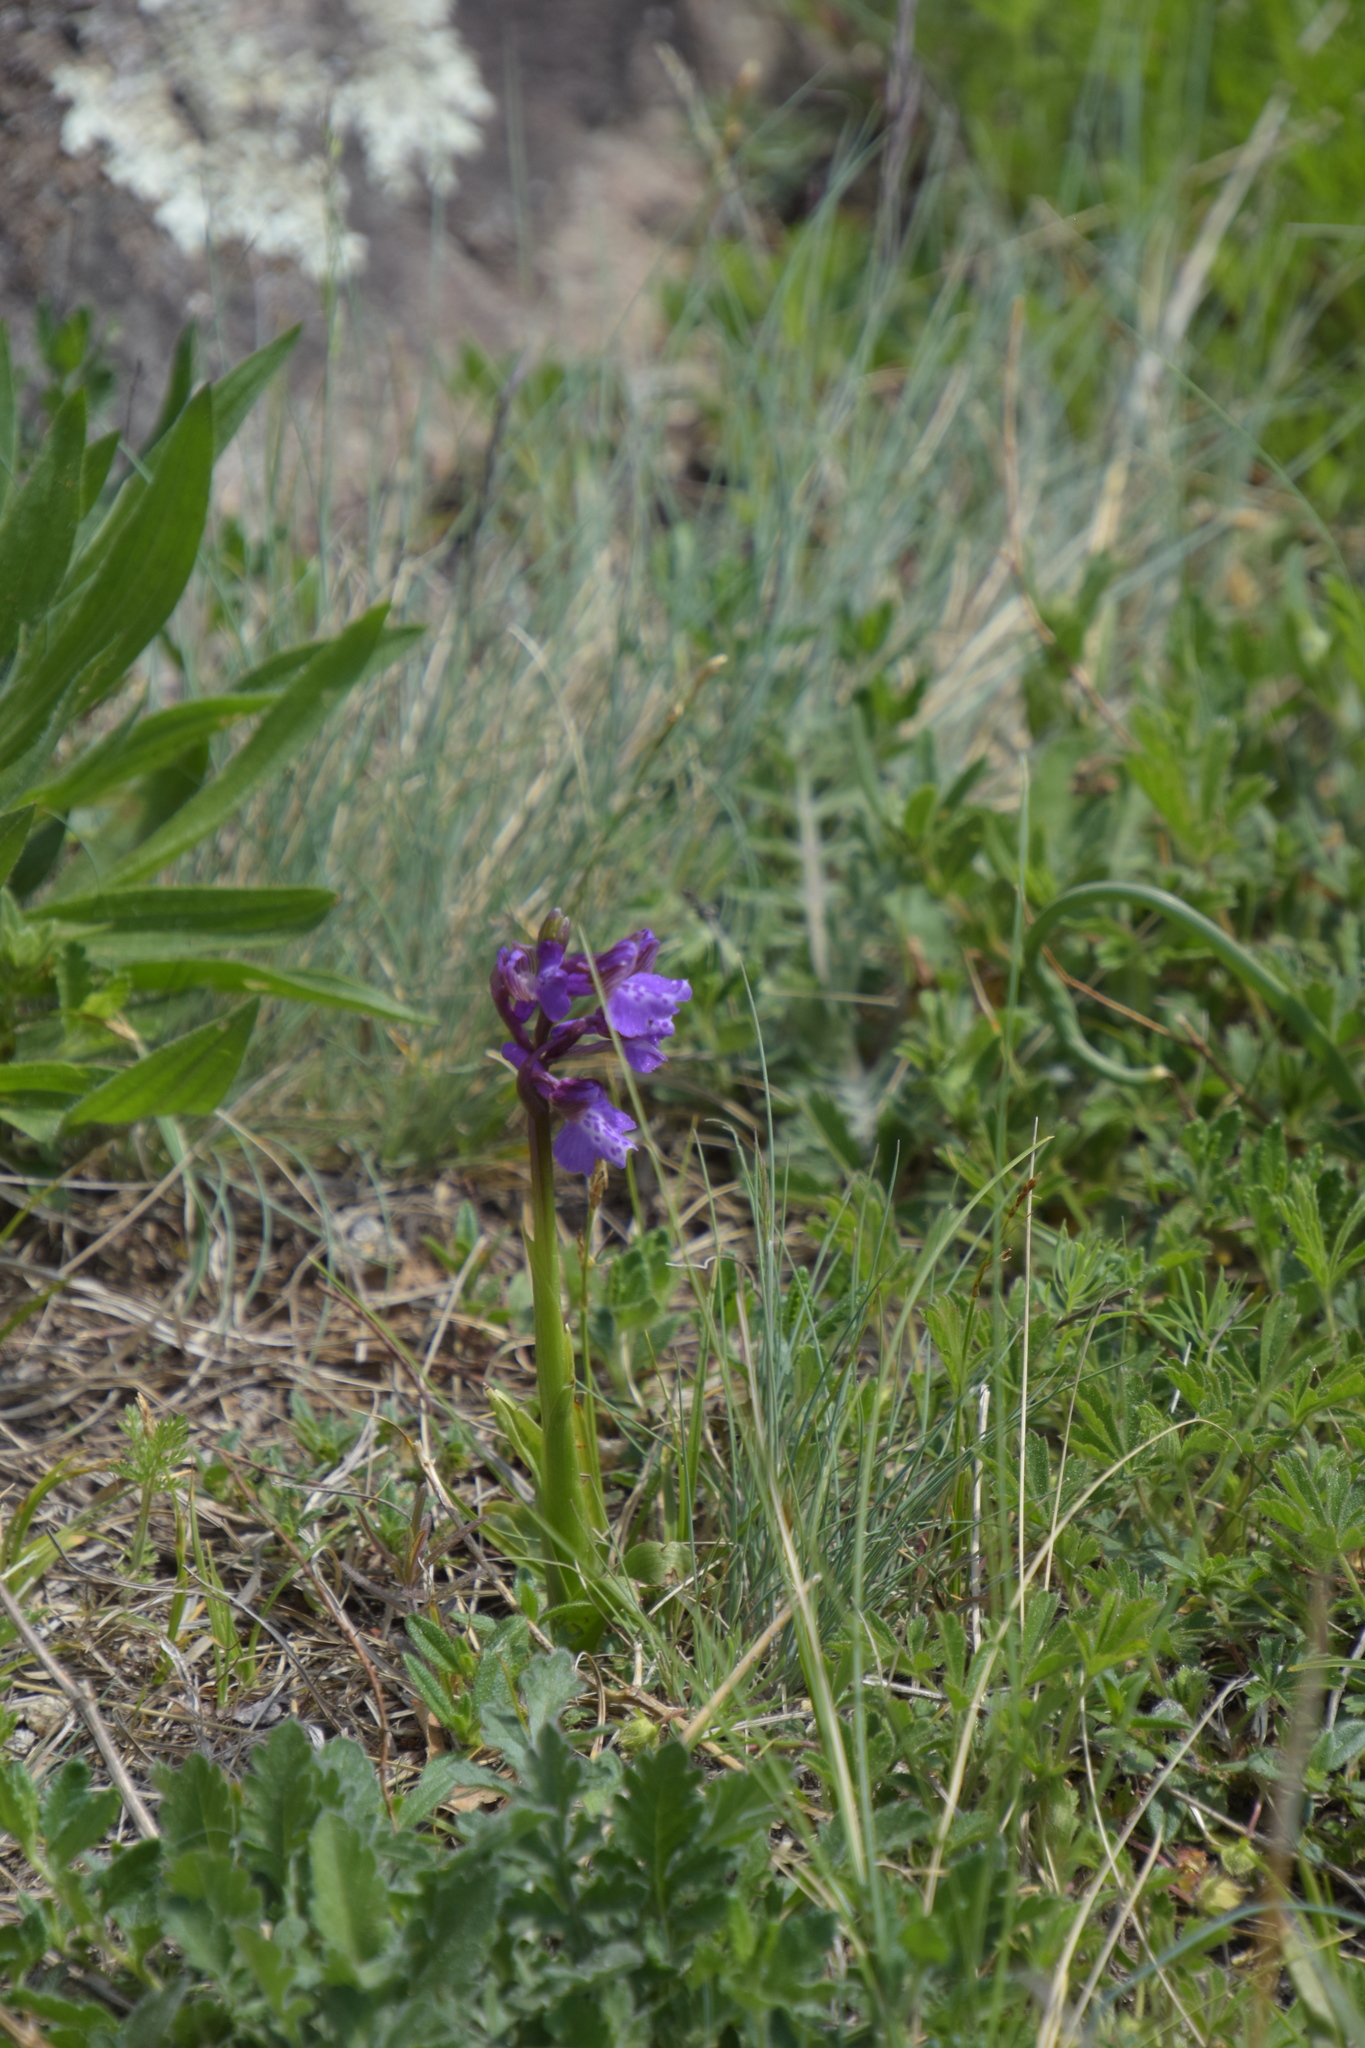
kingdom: Plantae
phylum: Tracheophyta
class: Liliopsida
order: Asparagales
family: Orchidaceae
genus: Anacamptis
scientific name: Anacamptis morio
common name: Green-winged orchid
